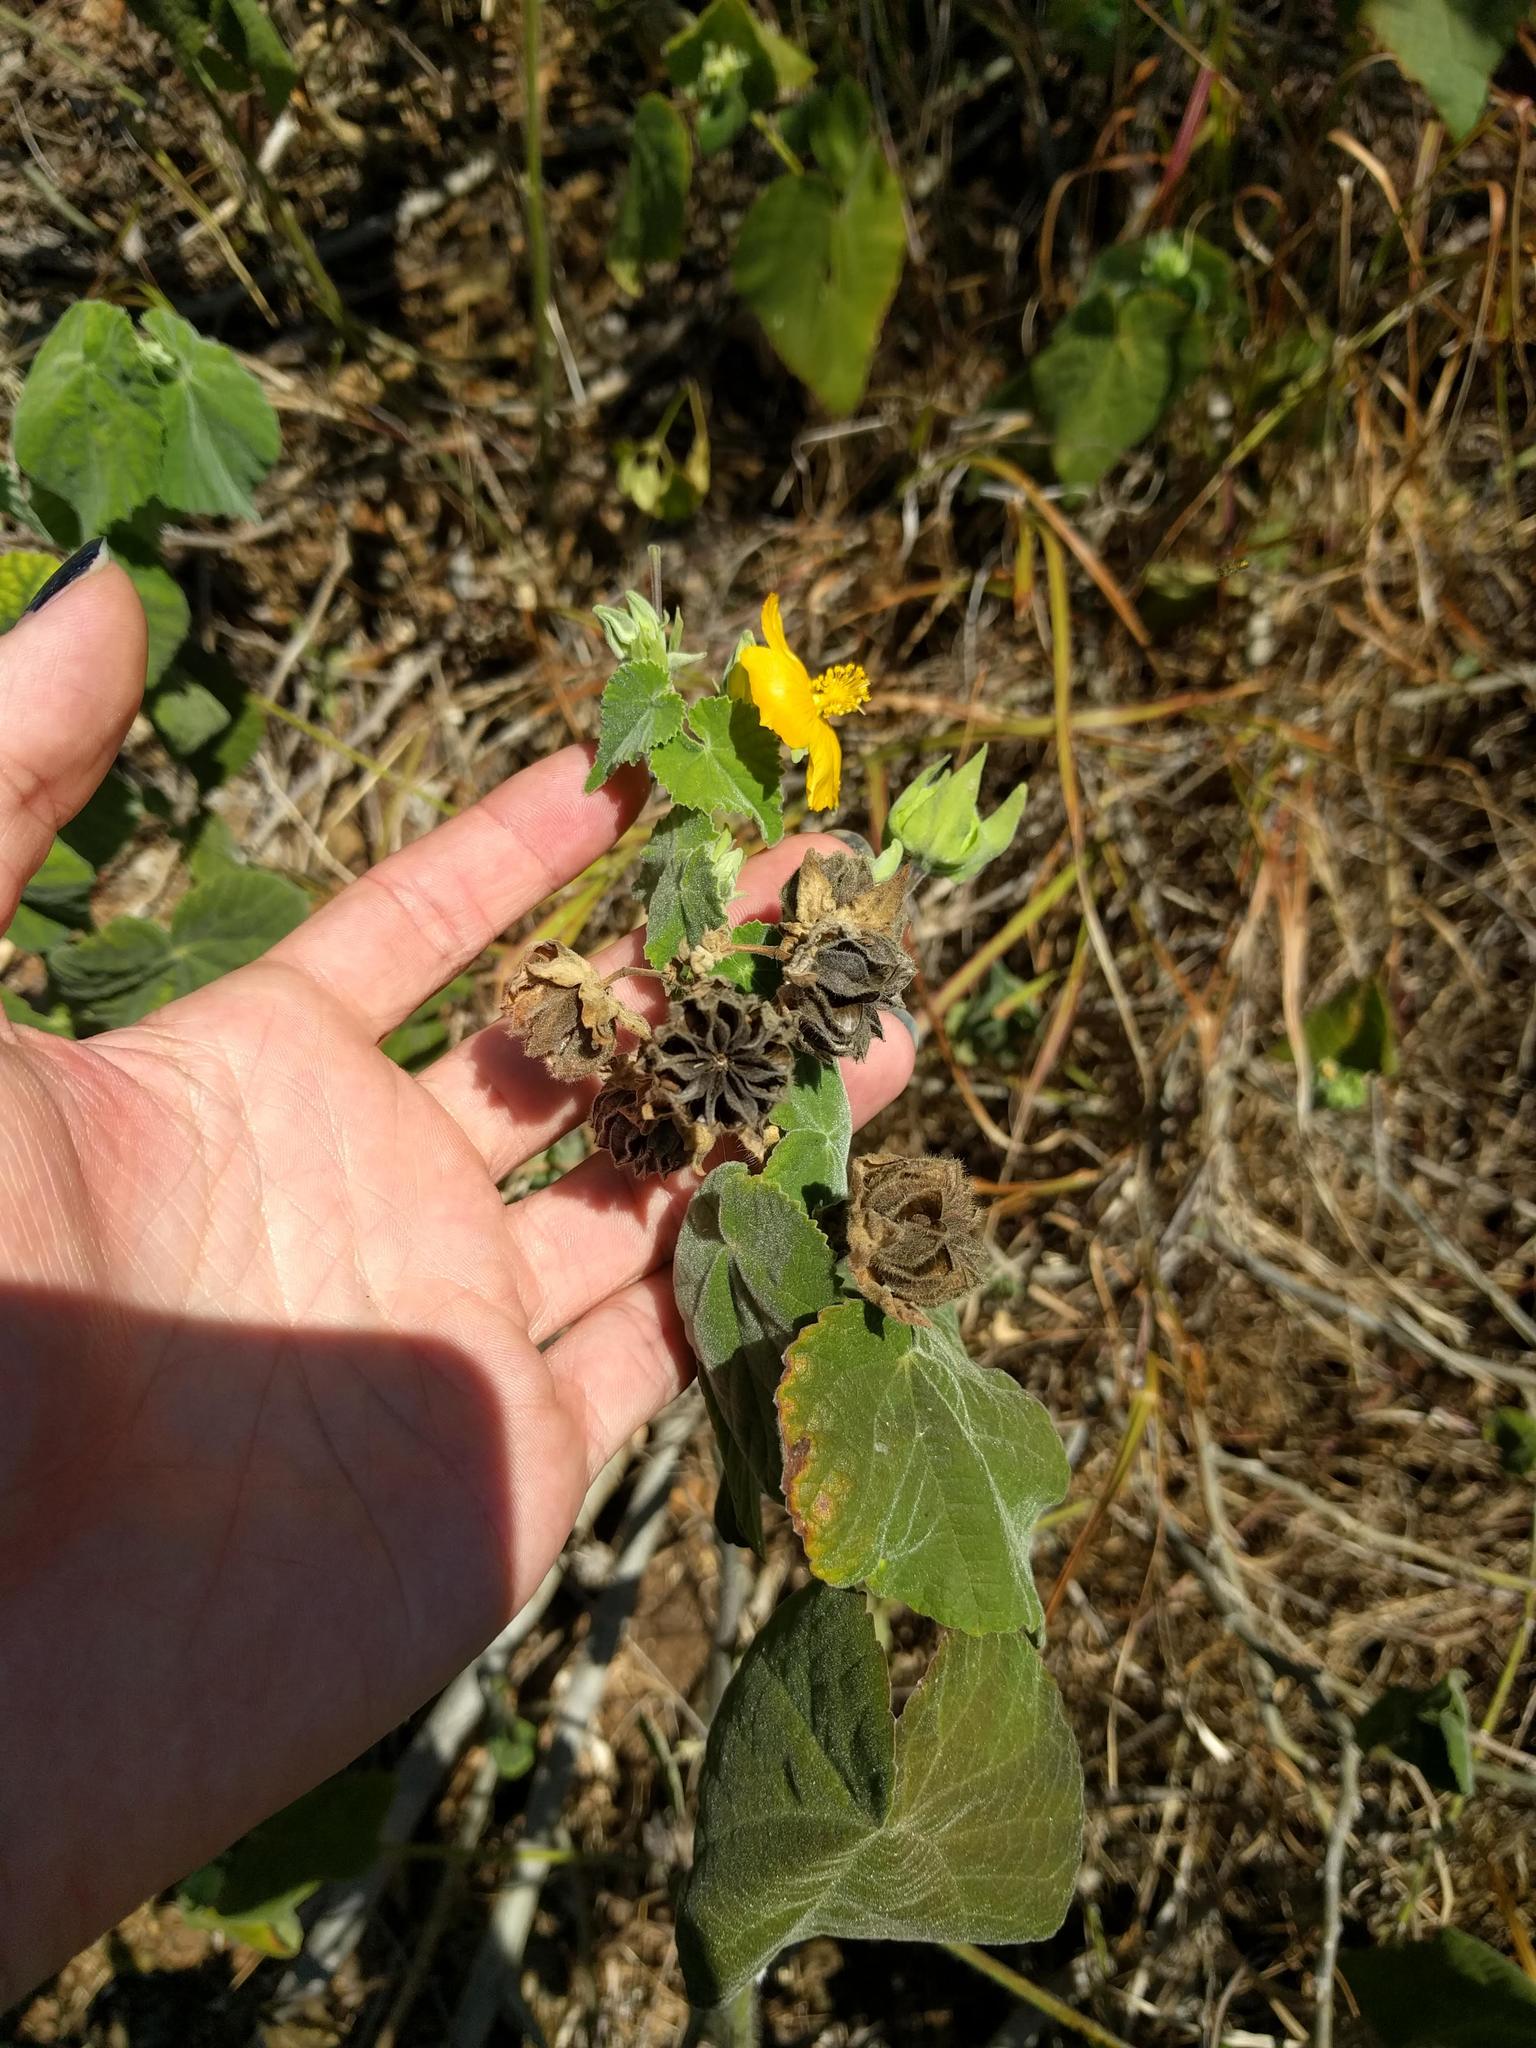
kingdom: Plantae
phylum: Tracheophyta
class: Magnoliopsida
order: Malvales
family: Malvaceae
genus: Abutilon
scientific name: Abutilon grandifolium
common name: Hairy abutilon
